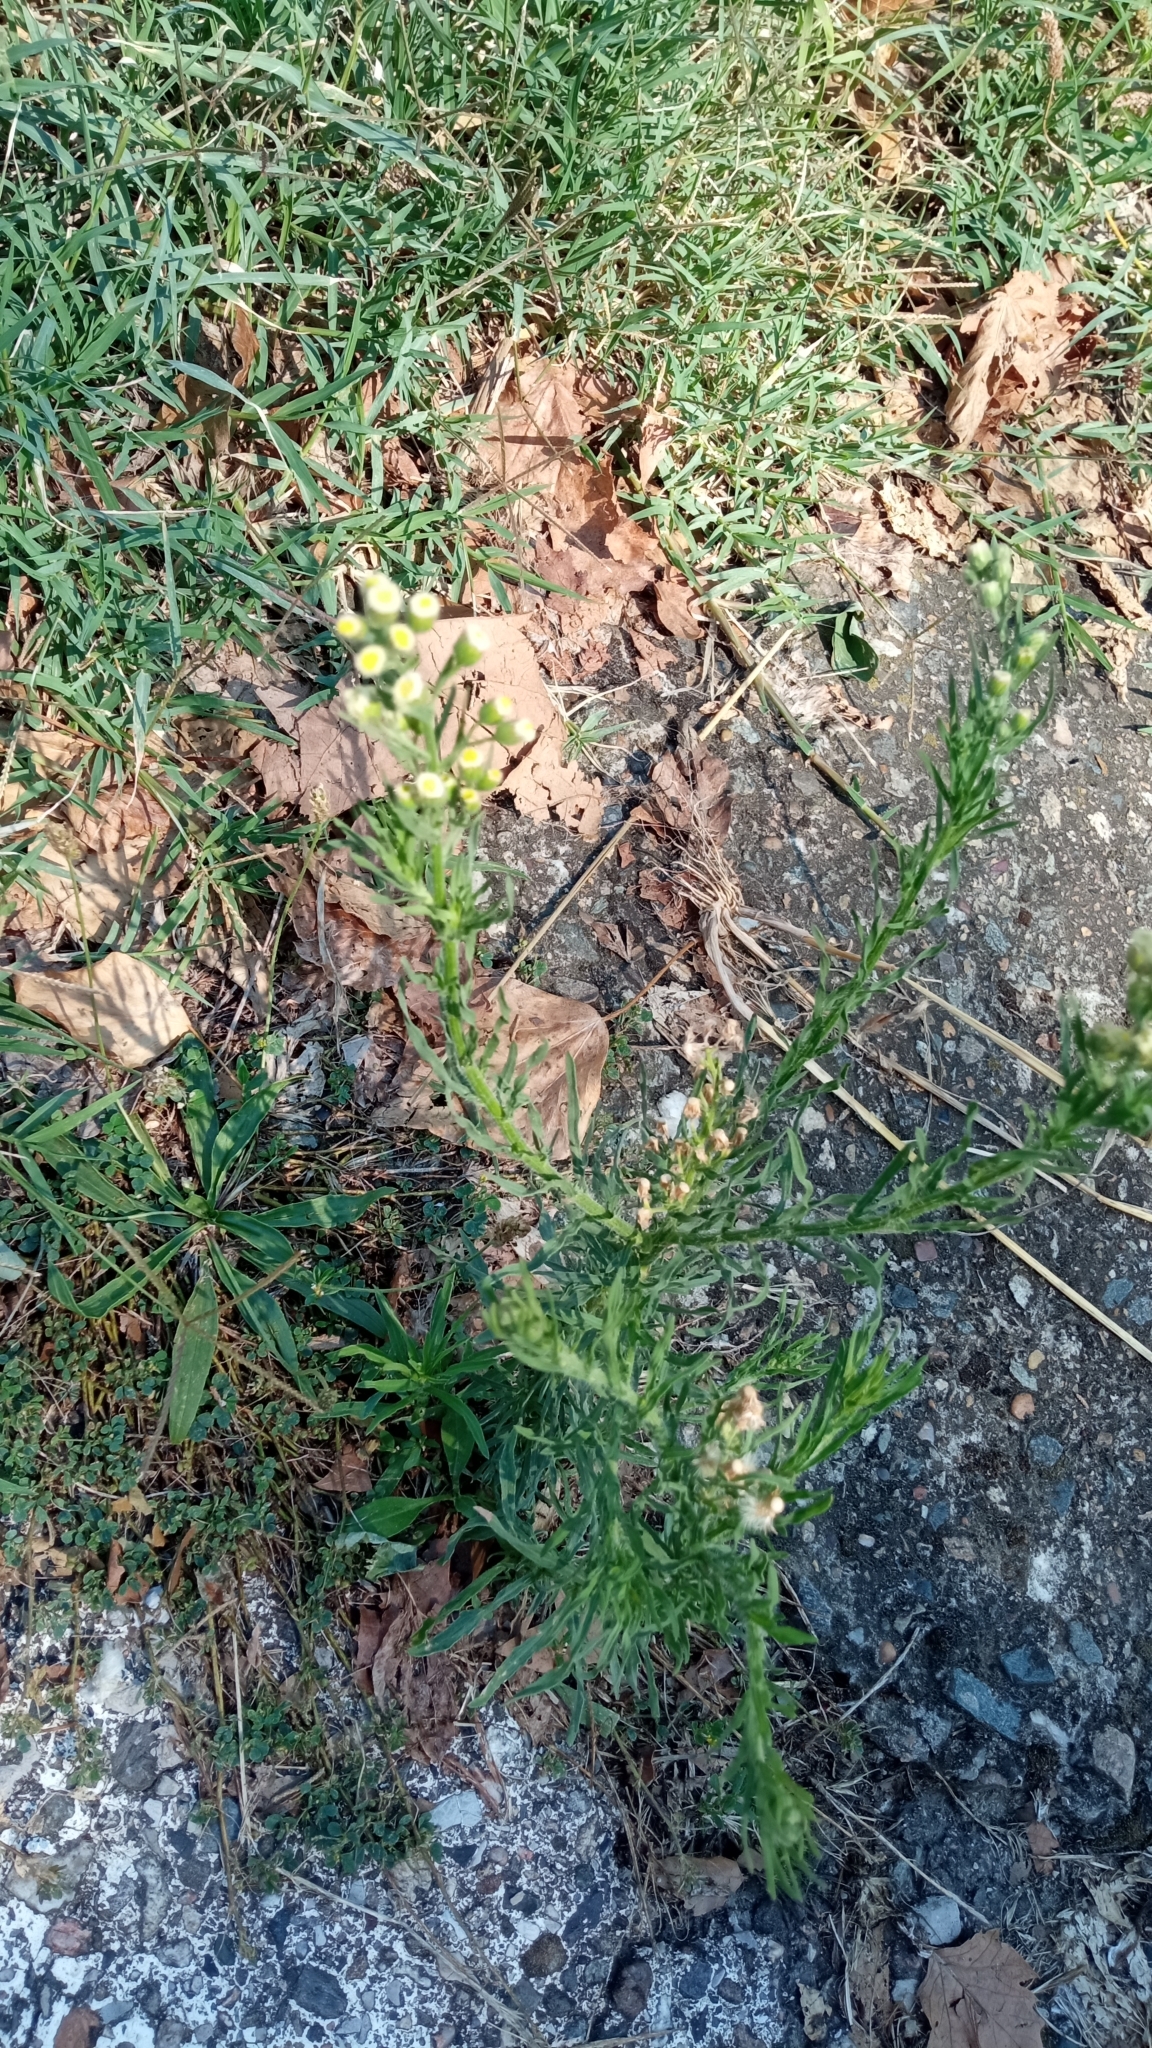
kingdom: Plantae
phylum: Tracheophyta
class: Magnoliopsida
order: Asterales
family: Asteraceae
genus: Erigeron
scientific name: Erigeron bonariensis
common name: Argentine fleabane
